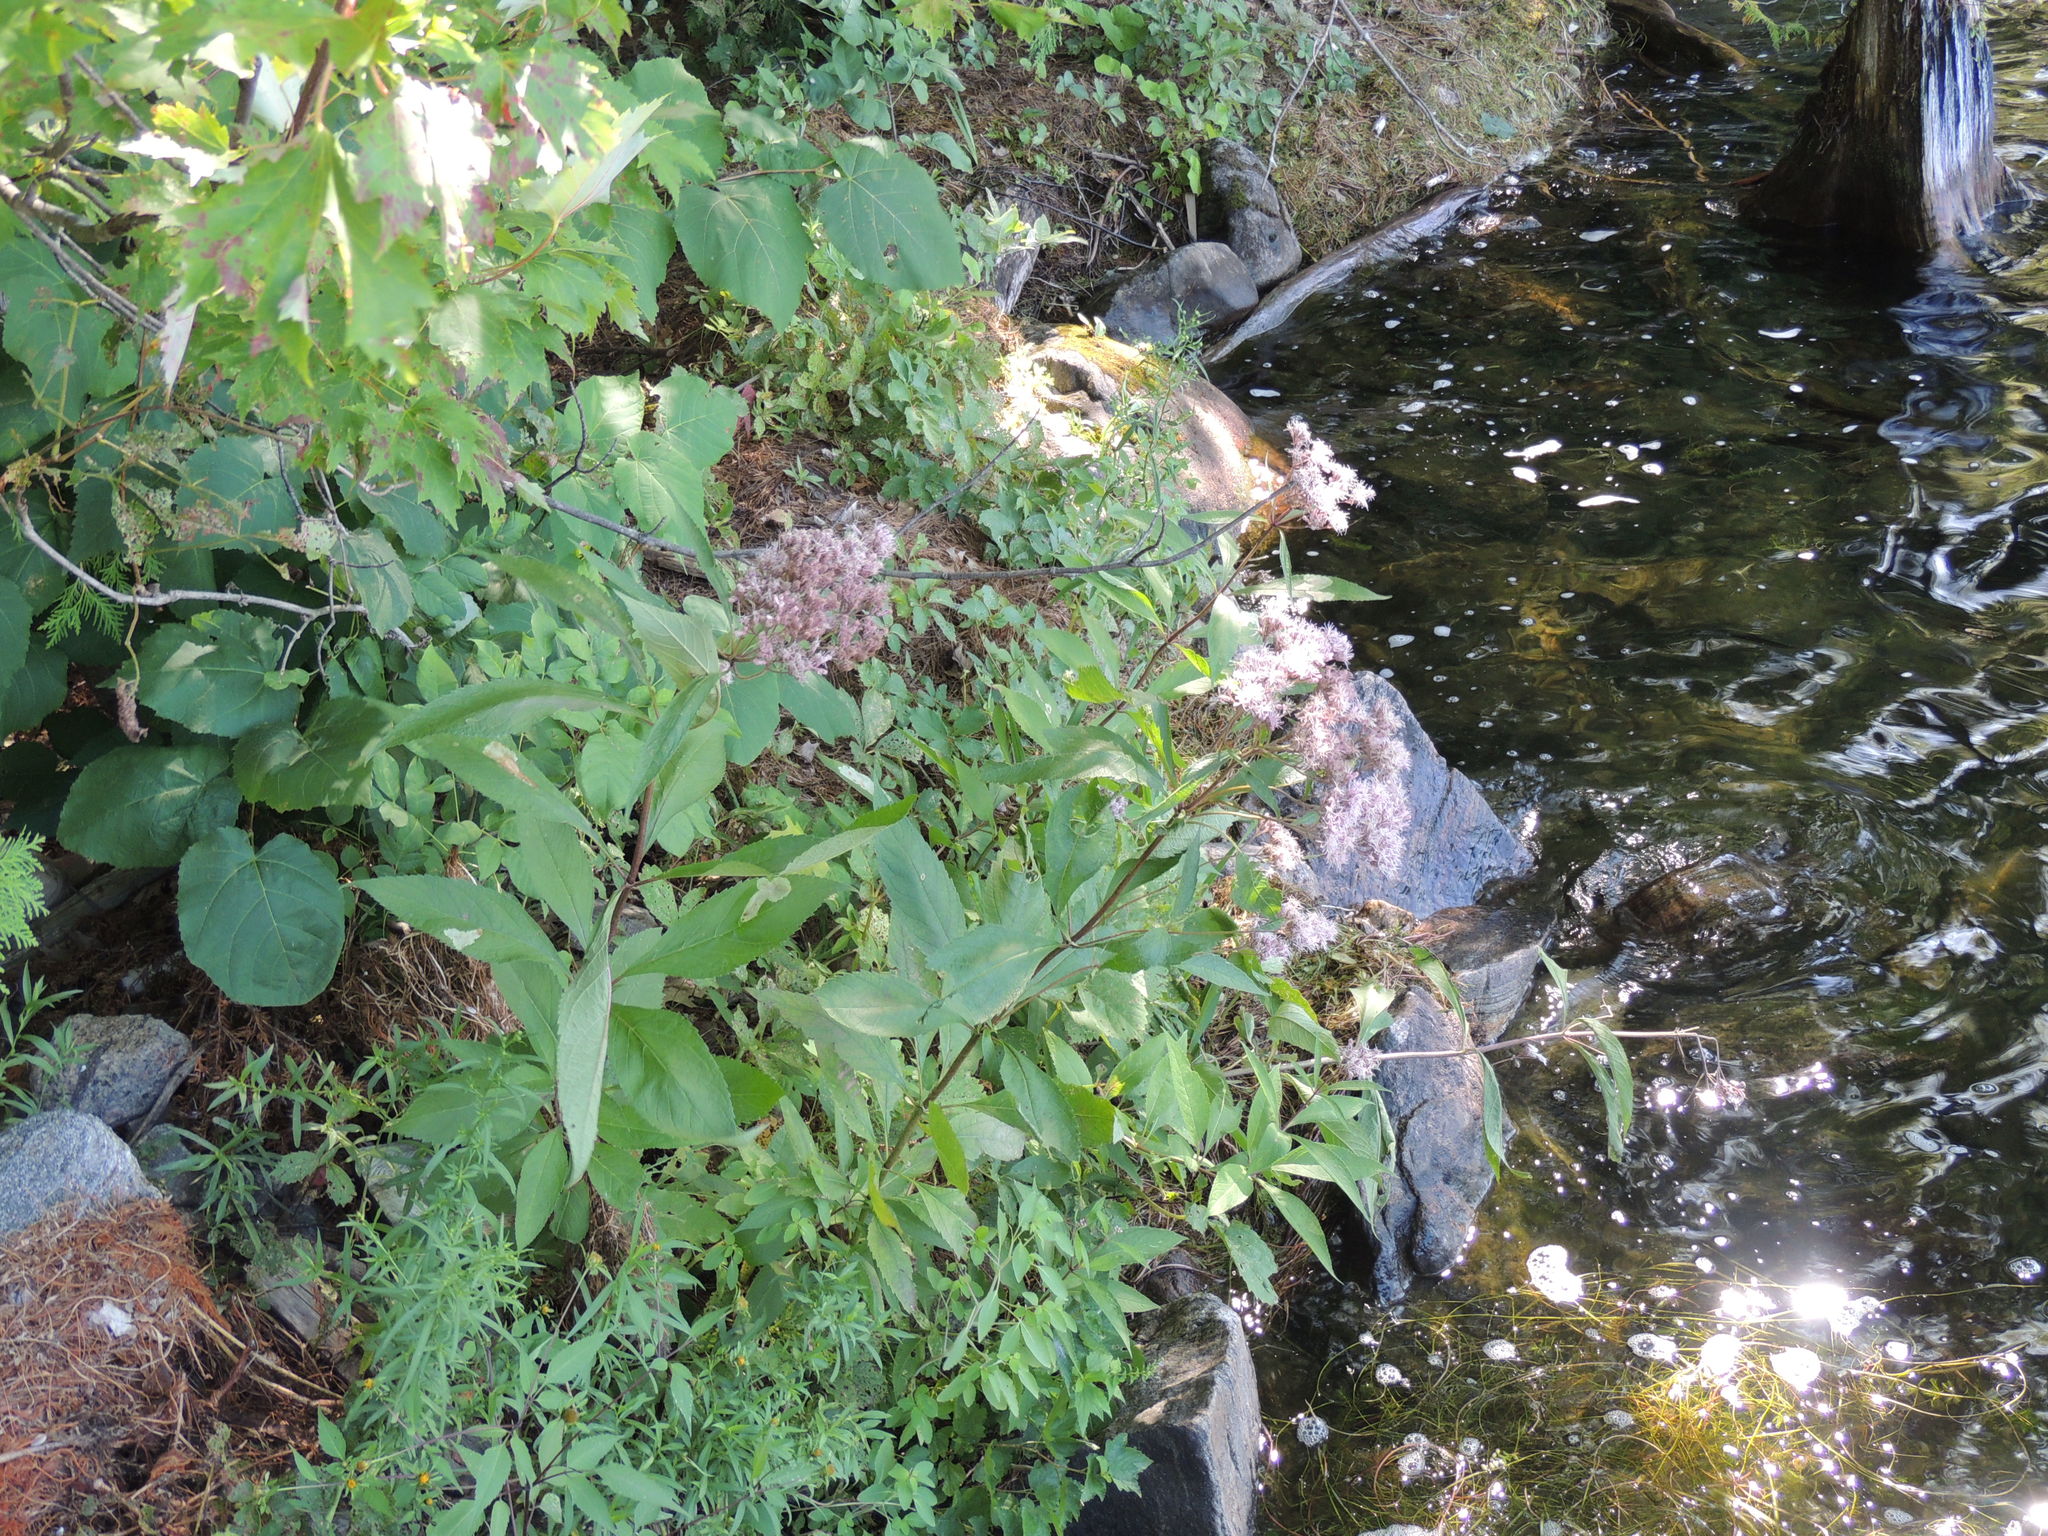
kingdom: Plantae
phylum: Tracheophyta
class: Magnoliopsida
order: Asterales
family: Asteraceae
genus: Eutrochium
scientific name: Eutrochium maculatum
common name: Spotted joe pye weed
